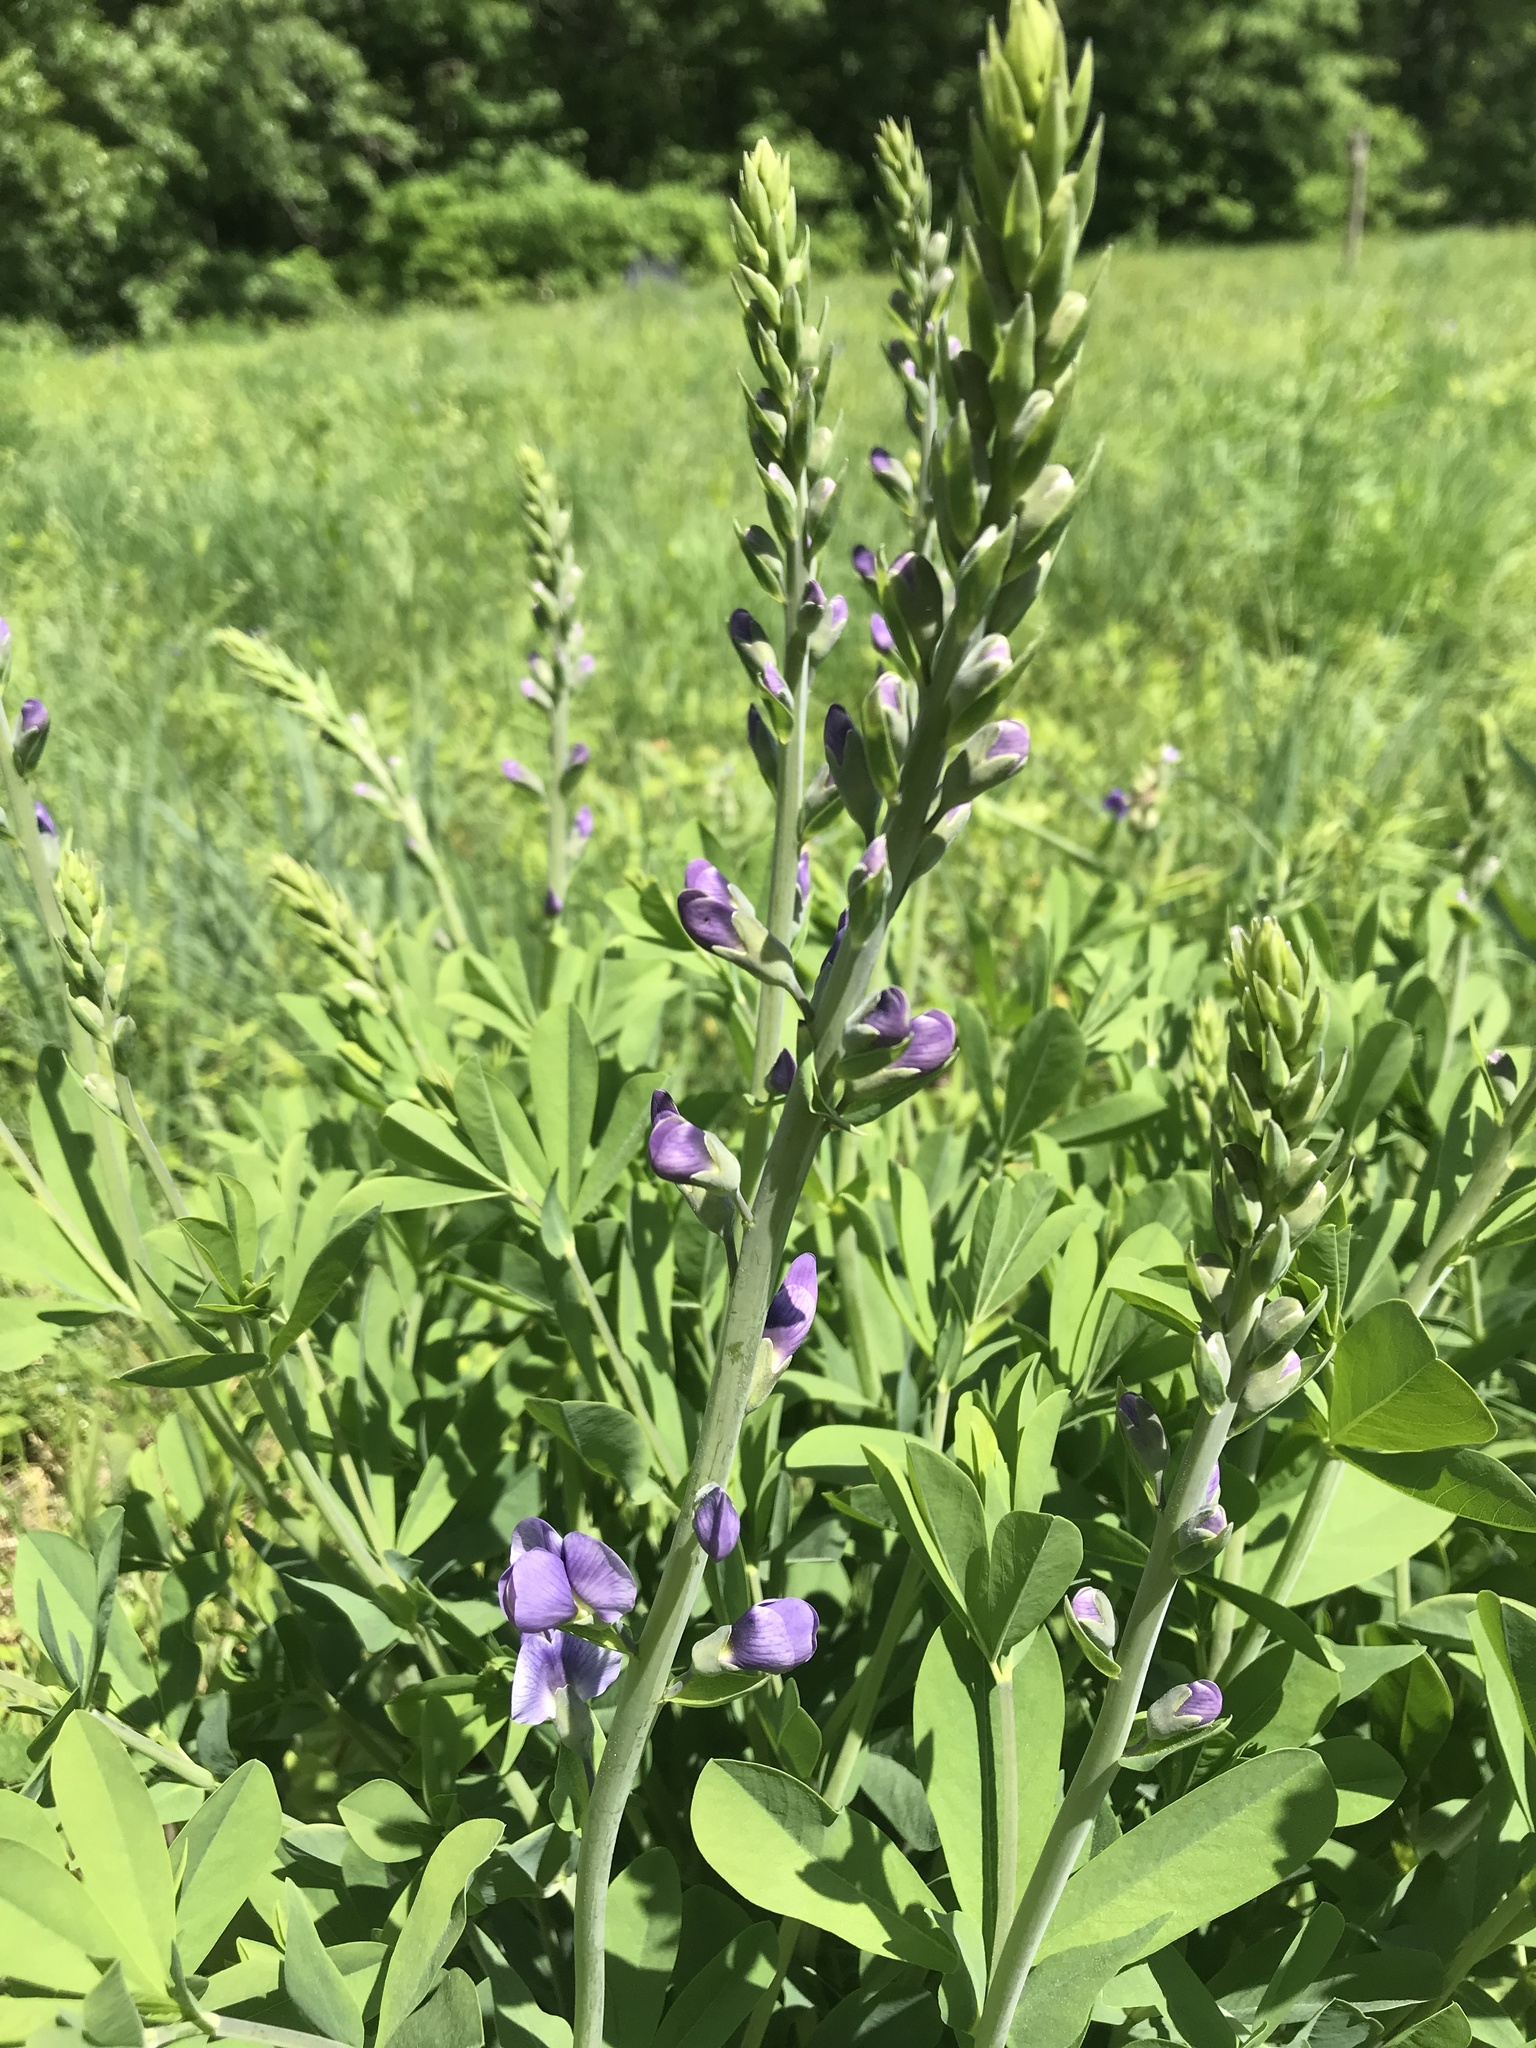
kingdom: Plantae
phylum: Tracheophyta
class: Magnoliopsida
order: Fabales
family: Fabaceae
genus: Baptisia
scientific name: Baptisia australis
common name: Blue false indigo
